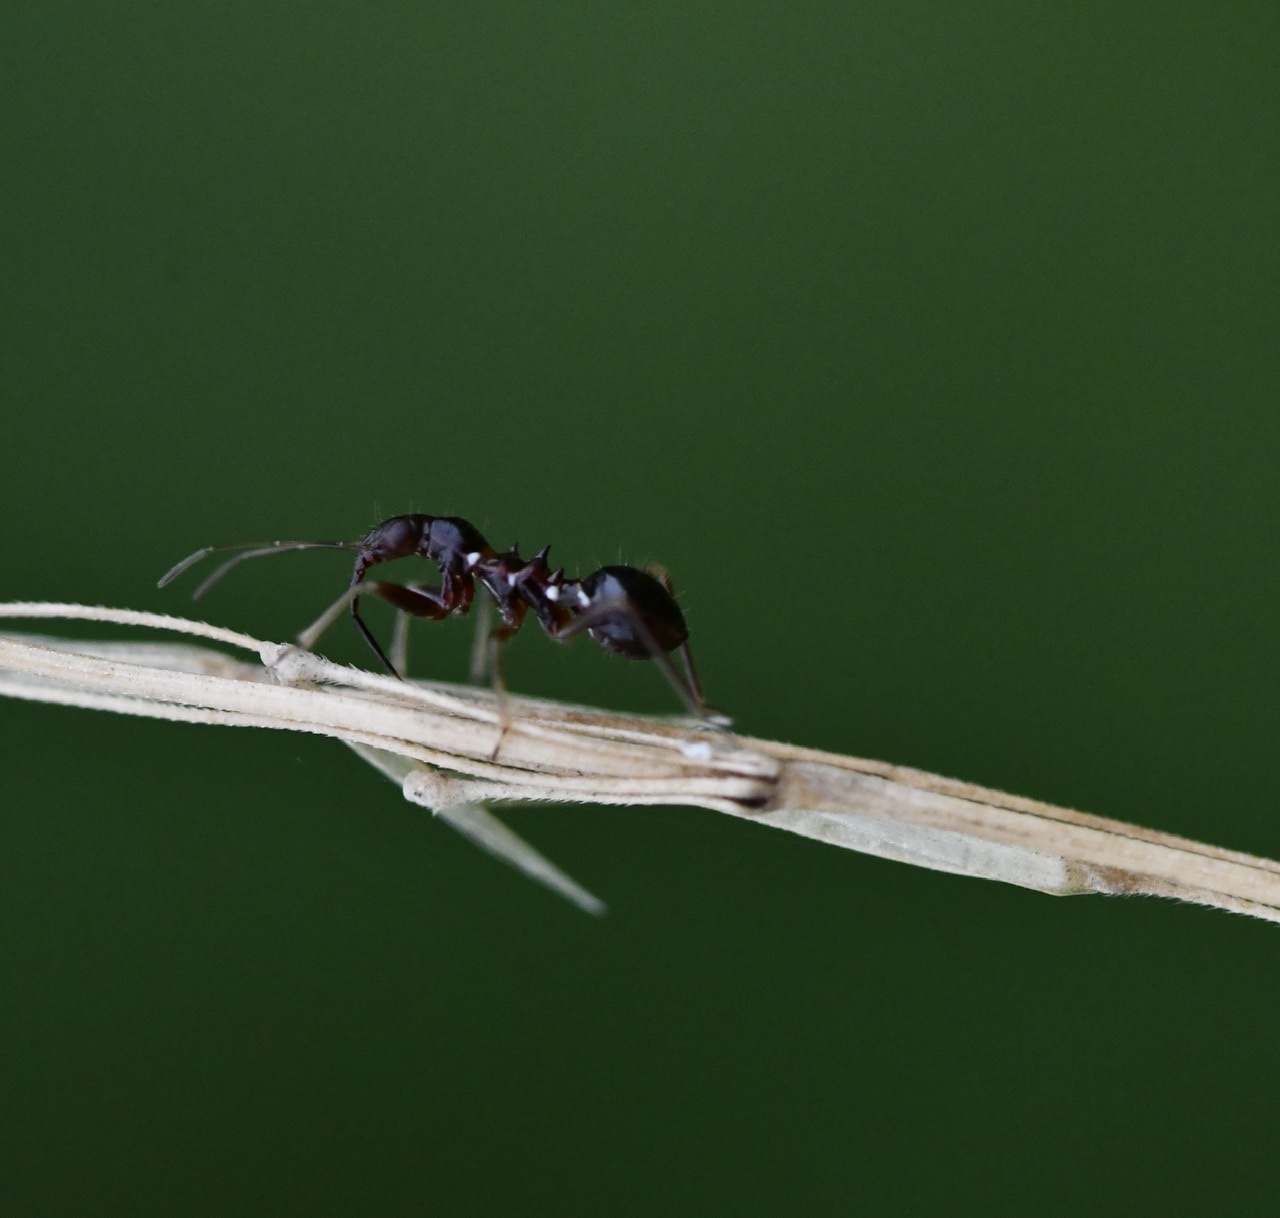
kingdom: Animalia
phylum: Arthropoda
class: Insecta
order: Hemiptera
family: Nabidae
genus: Himacerus
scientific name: Himacerus mirmicoides
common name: Ant damsel bug
